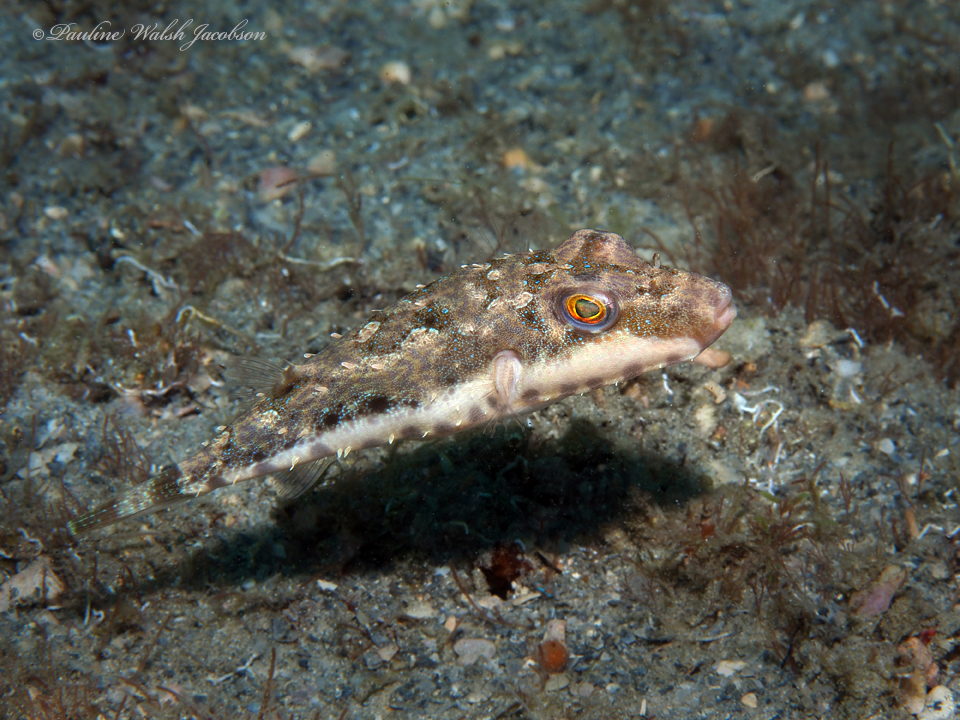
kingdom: Animalia
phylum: Chordata
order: Tetraodontiformes
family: Tetraodontidae
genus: Sphoeroides
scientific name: Sphoeroides spengleri
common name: Bandtail puffer
